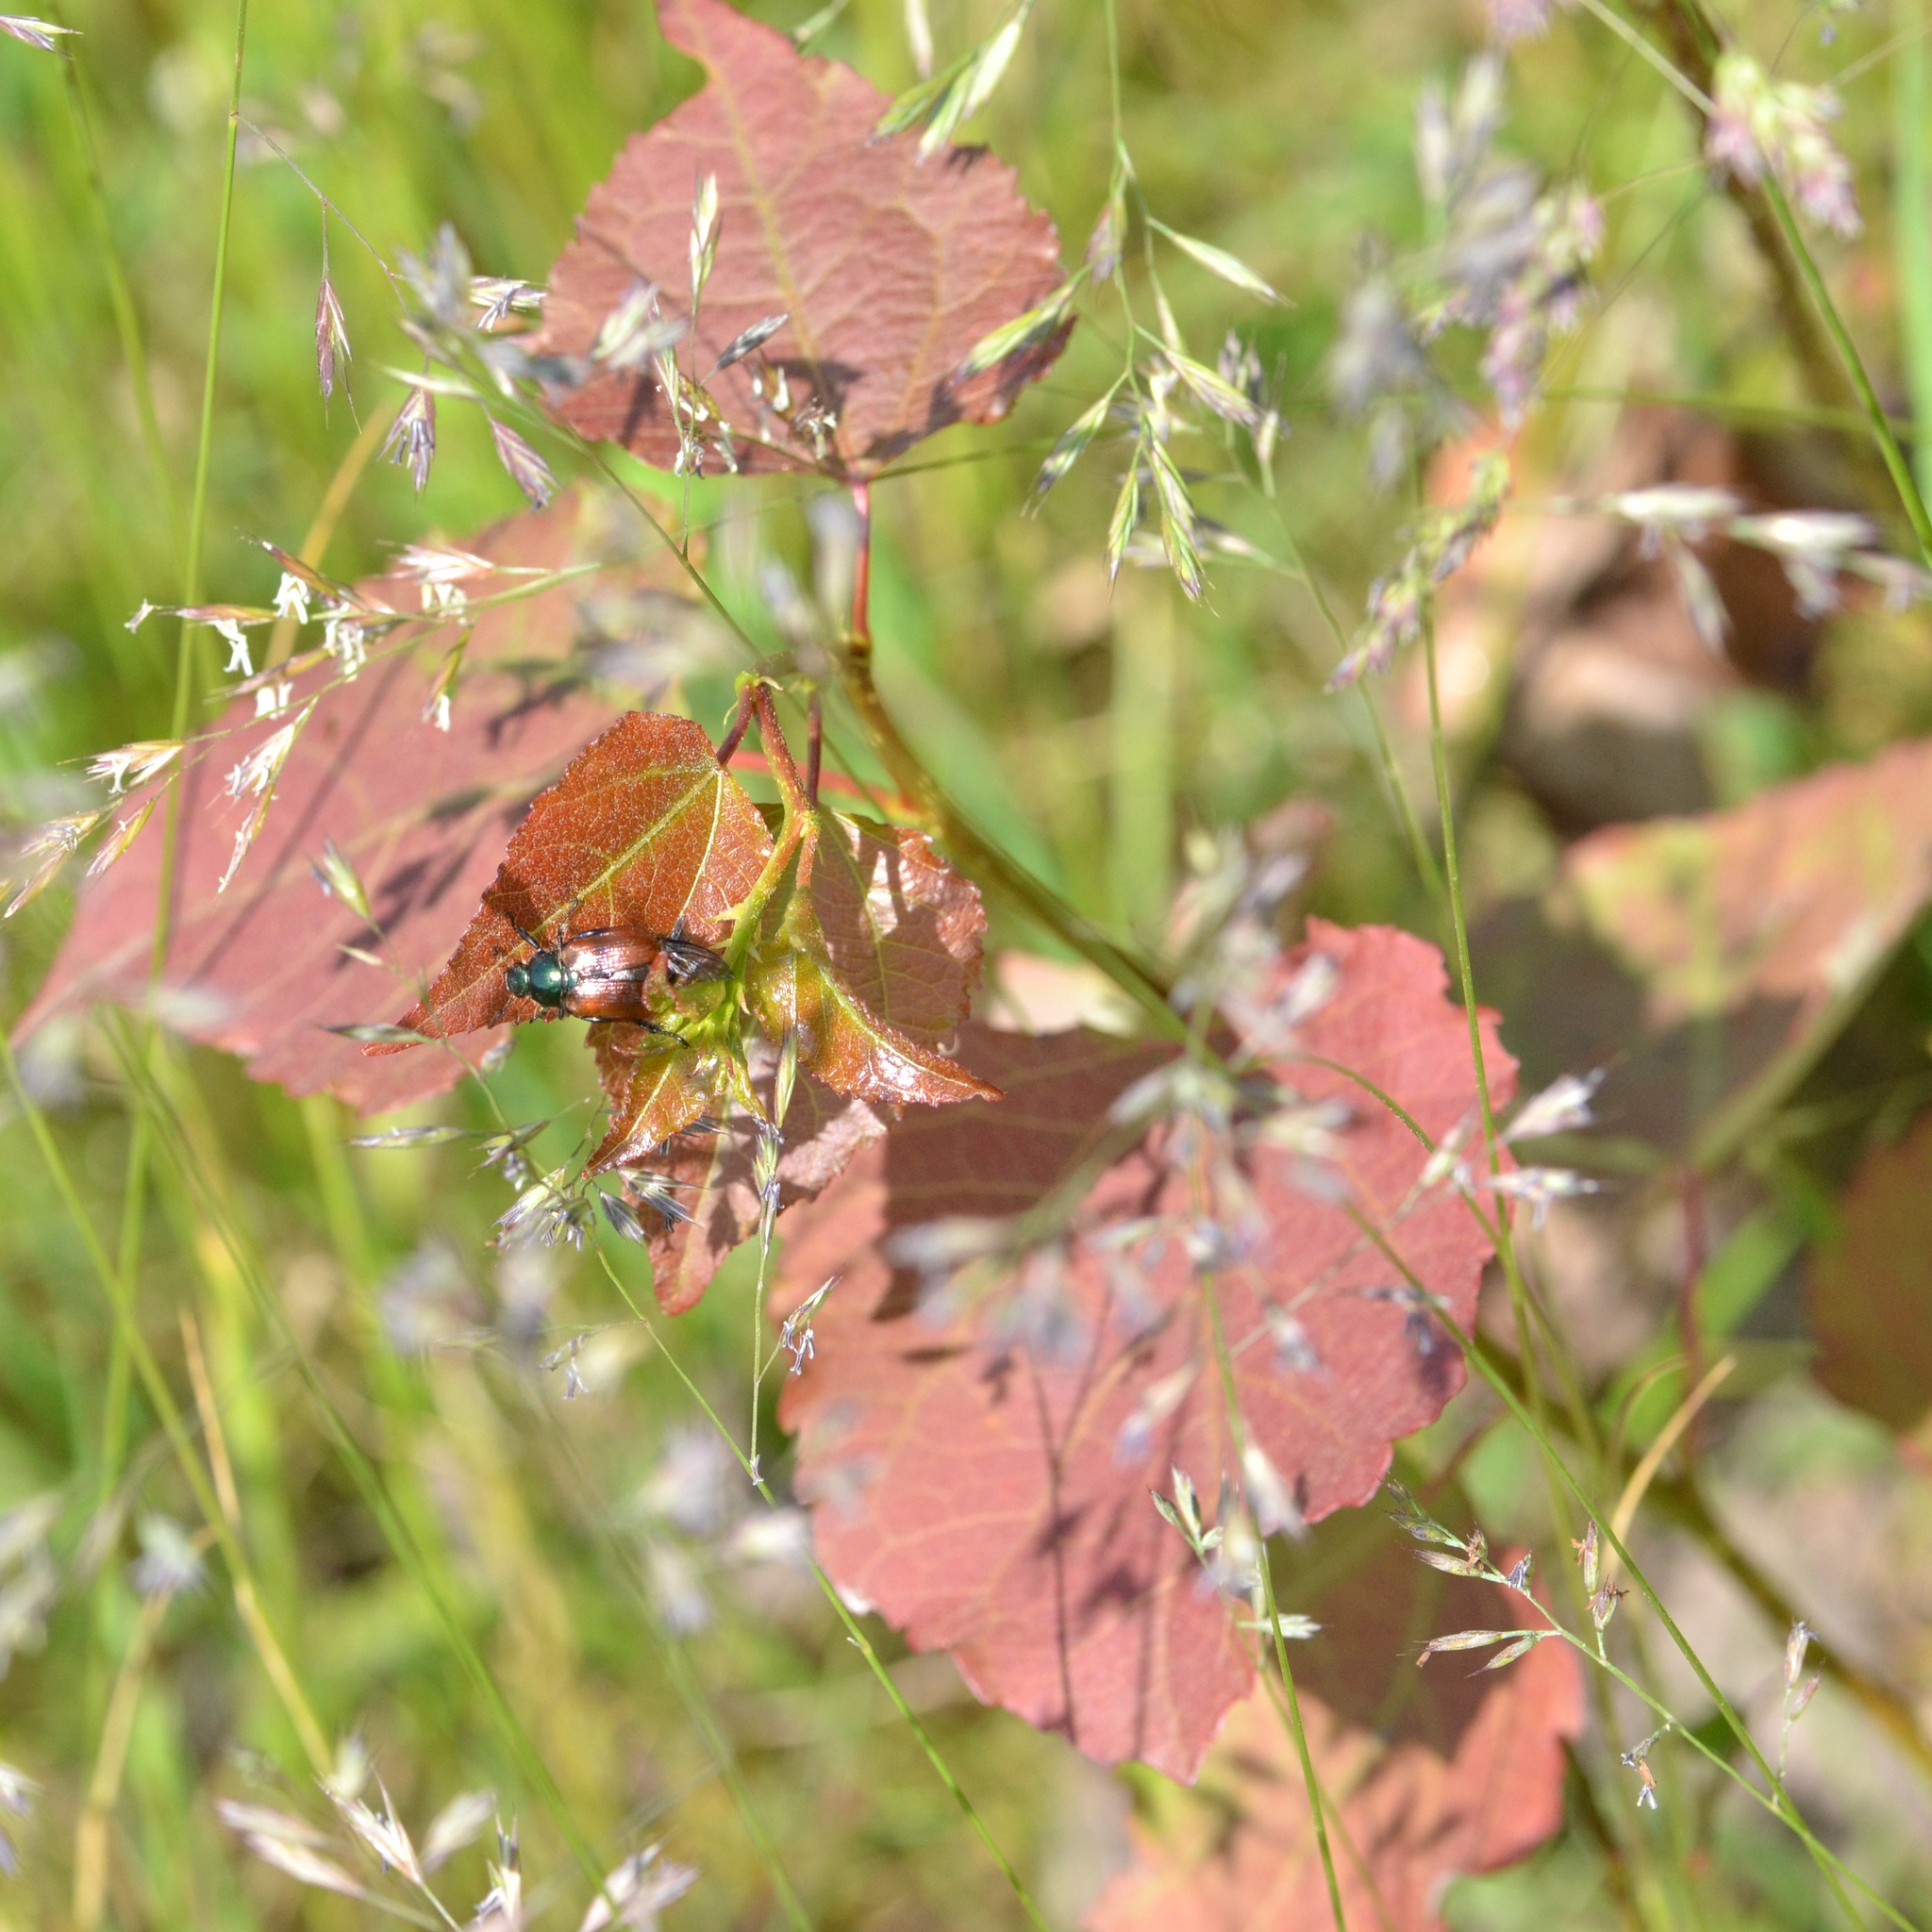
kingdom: Plantae
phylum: Tracheophyta
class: Magnoliopsida
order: Malpighiales
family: Salicaceae
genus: Populus
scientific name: Populus tremula
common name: European aspen
